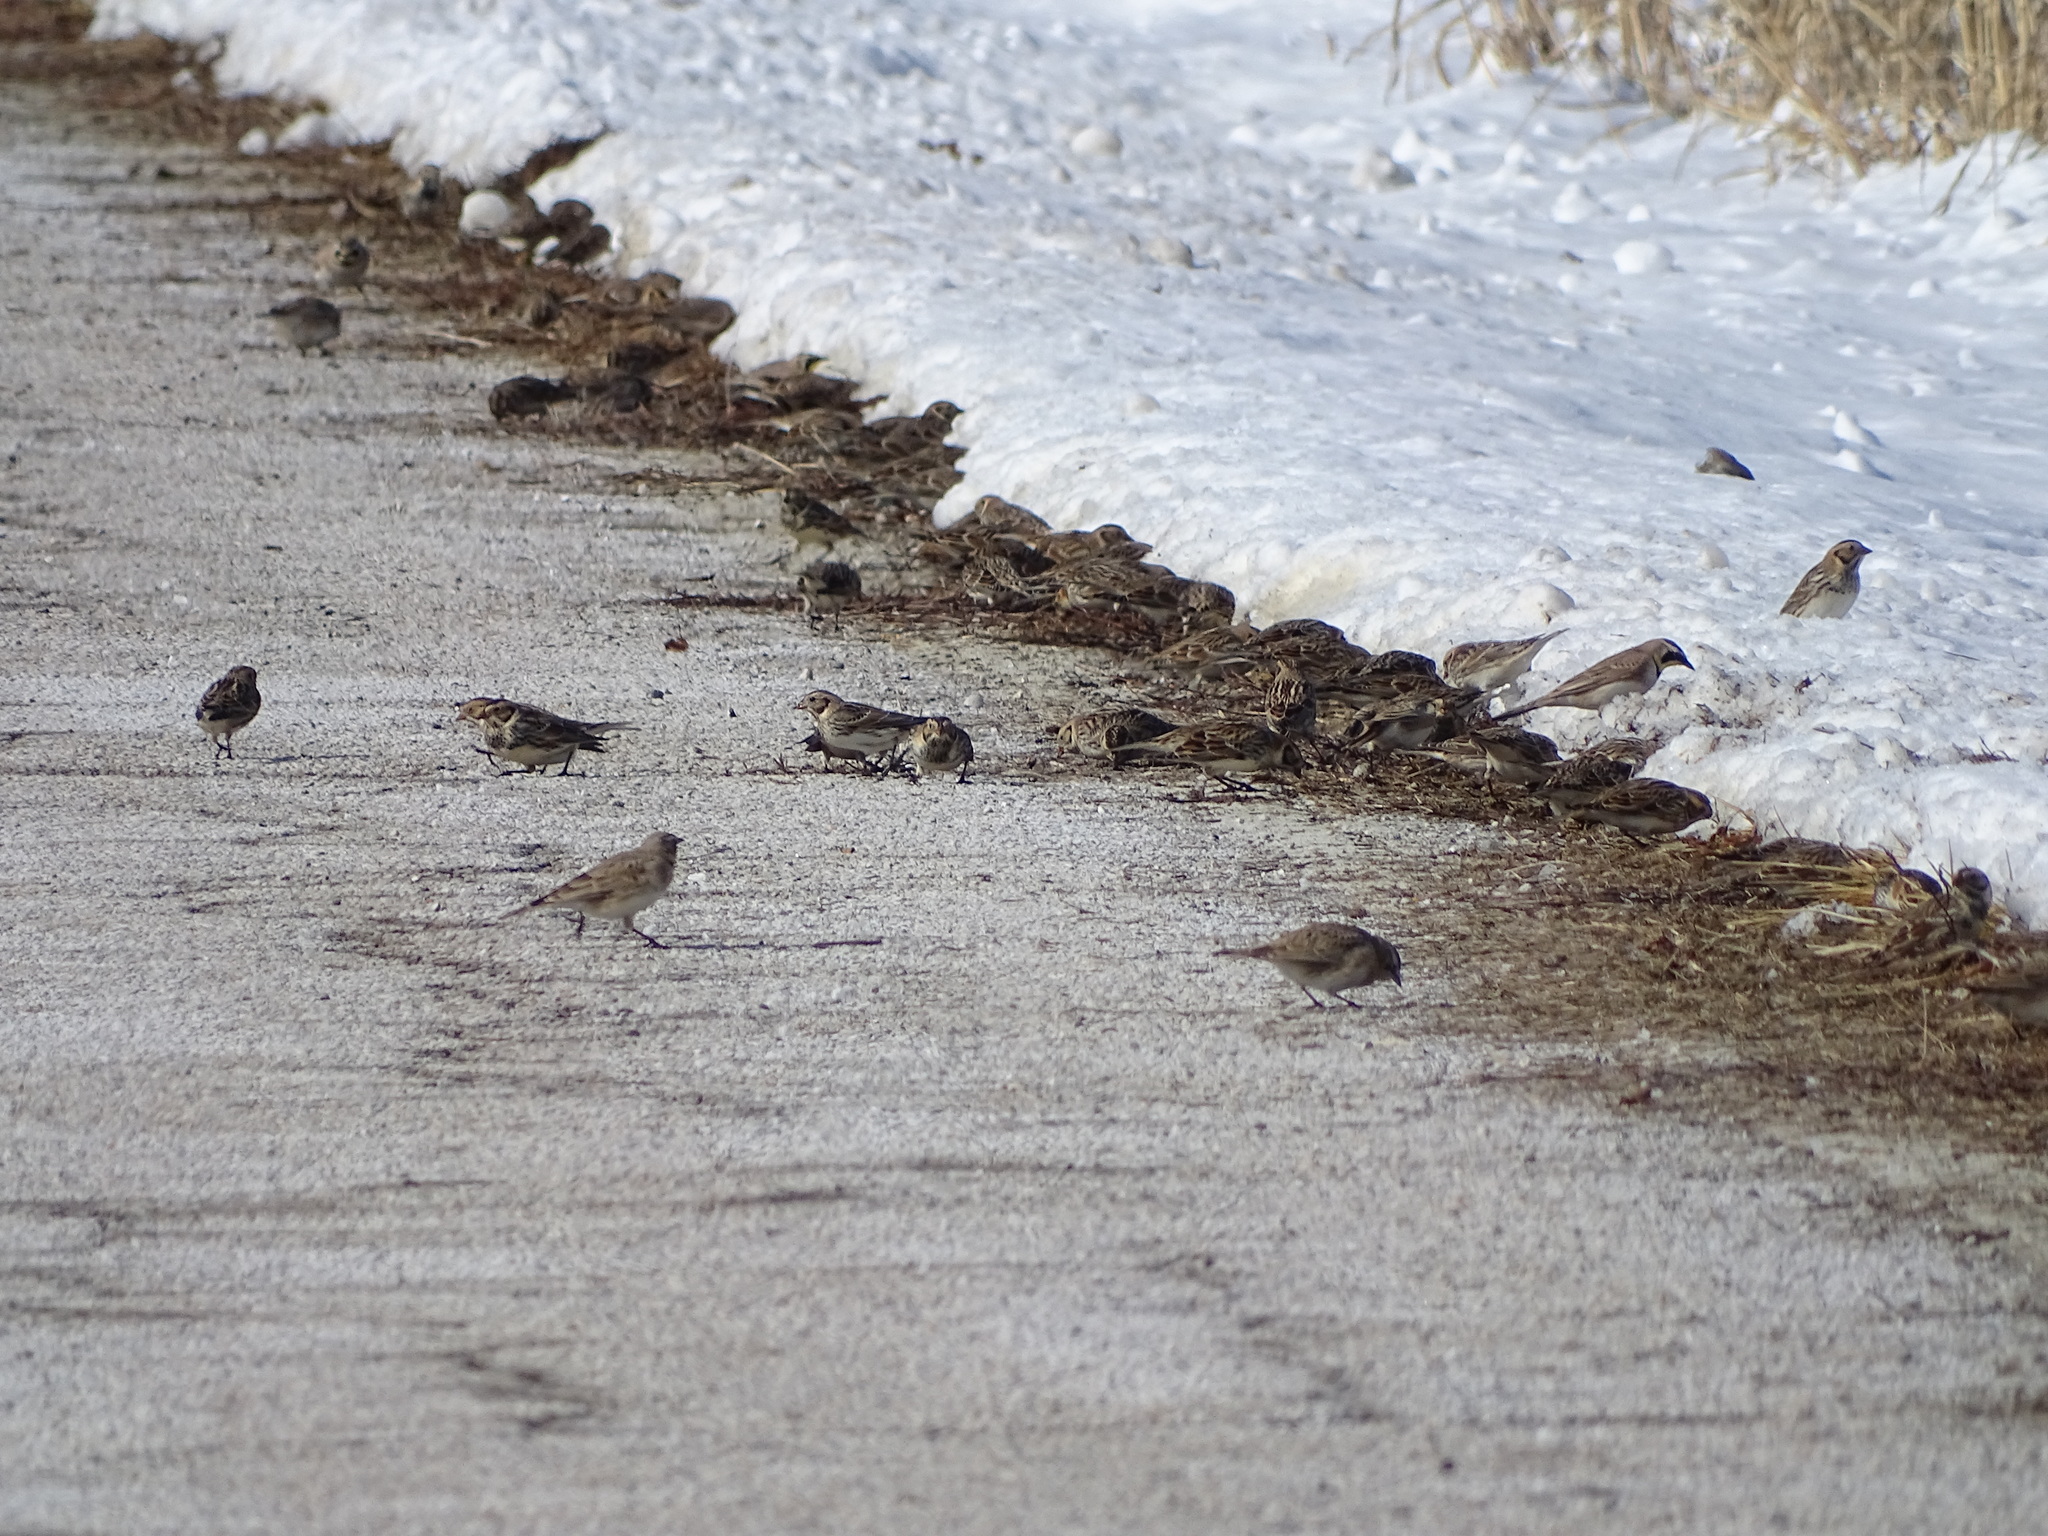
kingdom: Animalia
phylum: Chordata
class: Aves
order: Passeriformes
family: Calcariidae
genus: Calcarius
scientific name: Calcarius lapponicus
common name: Lapland longspur
